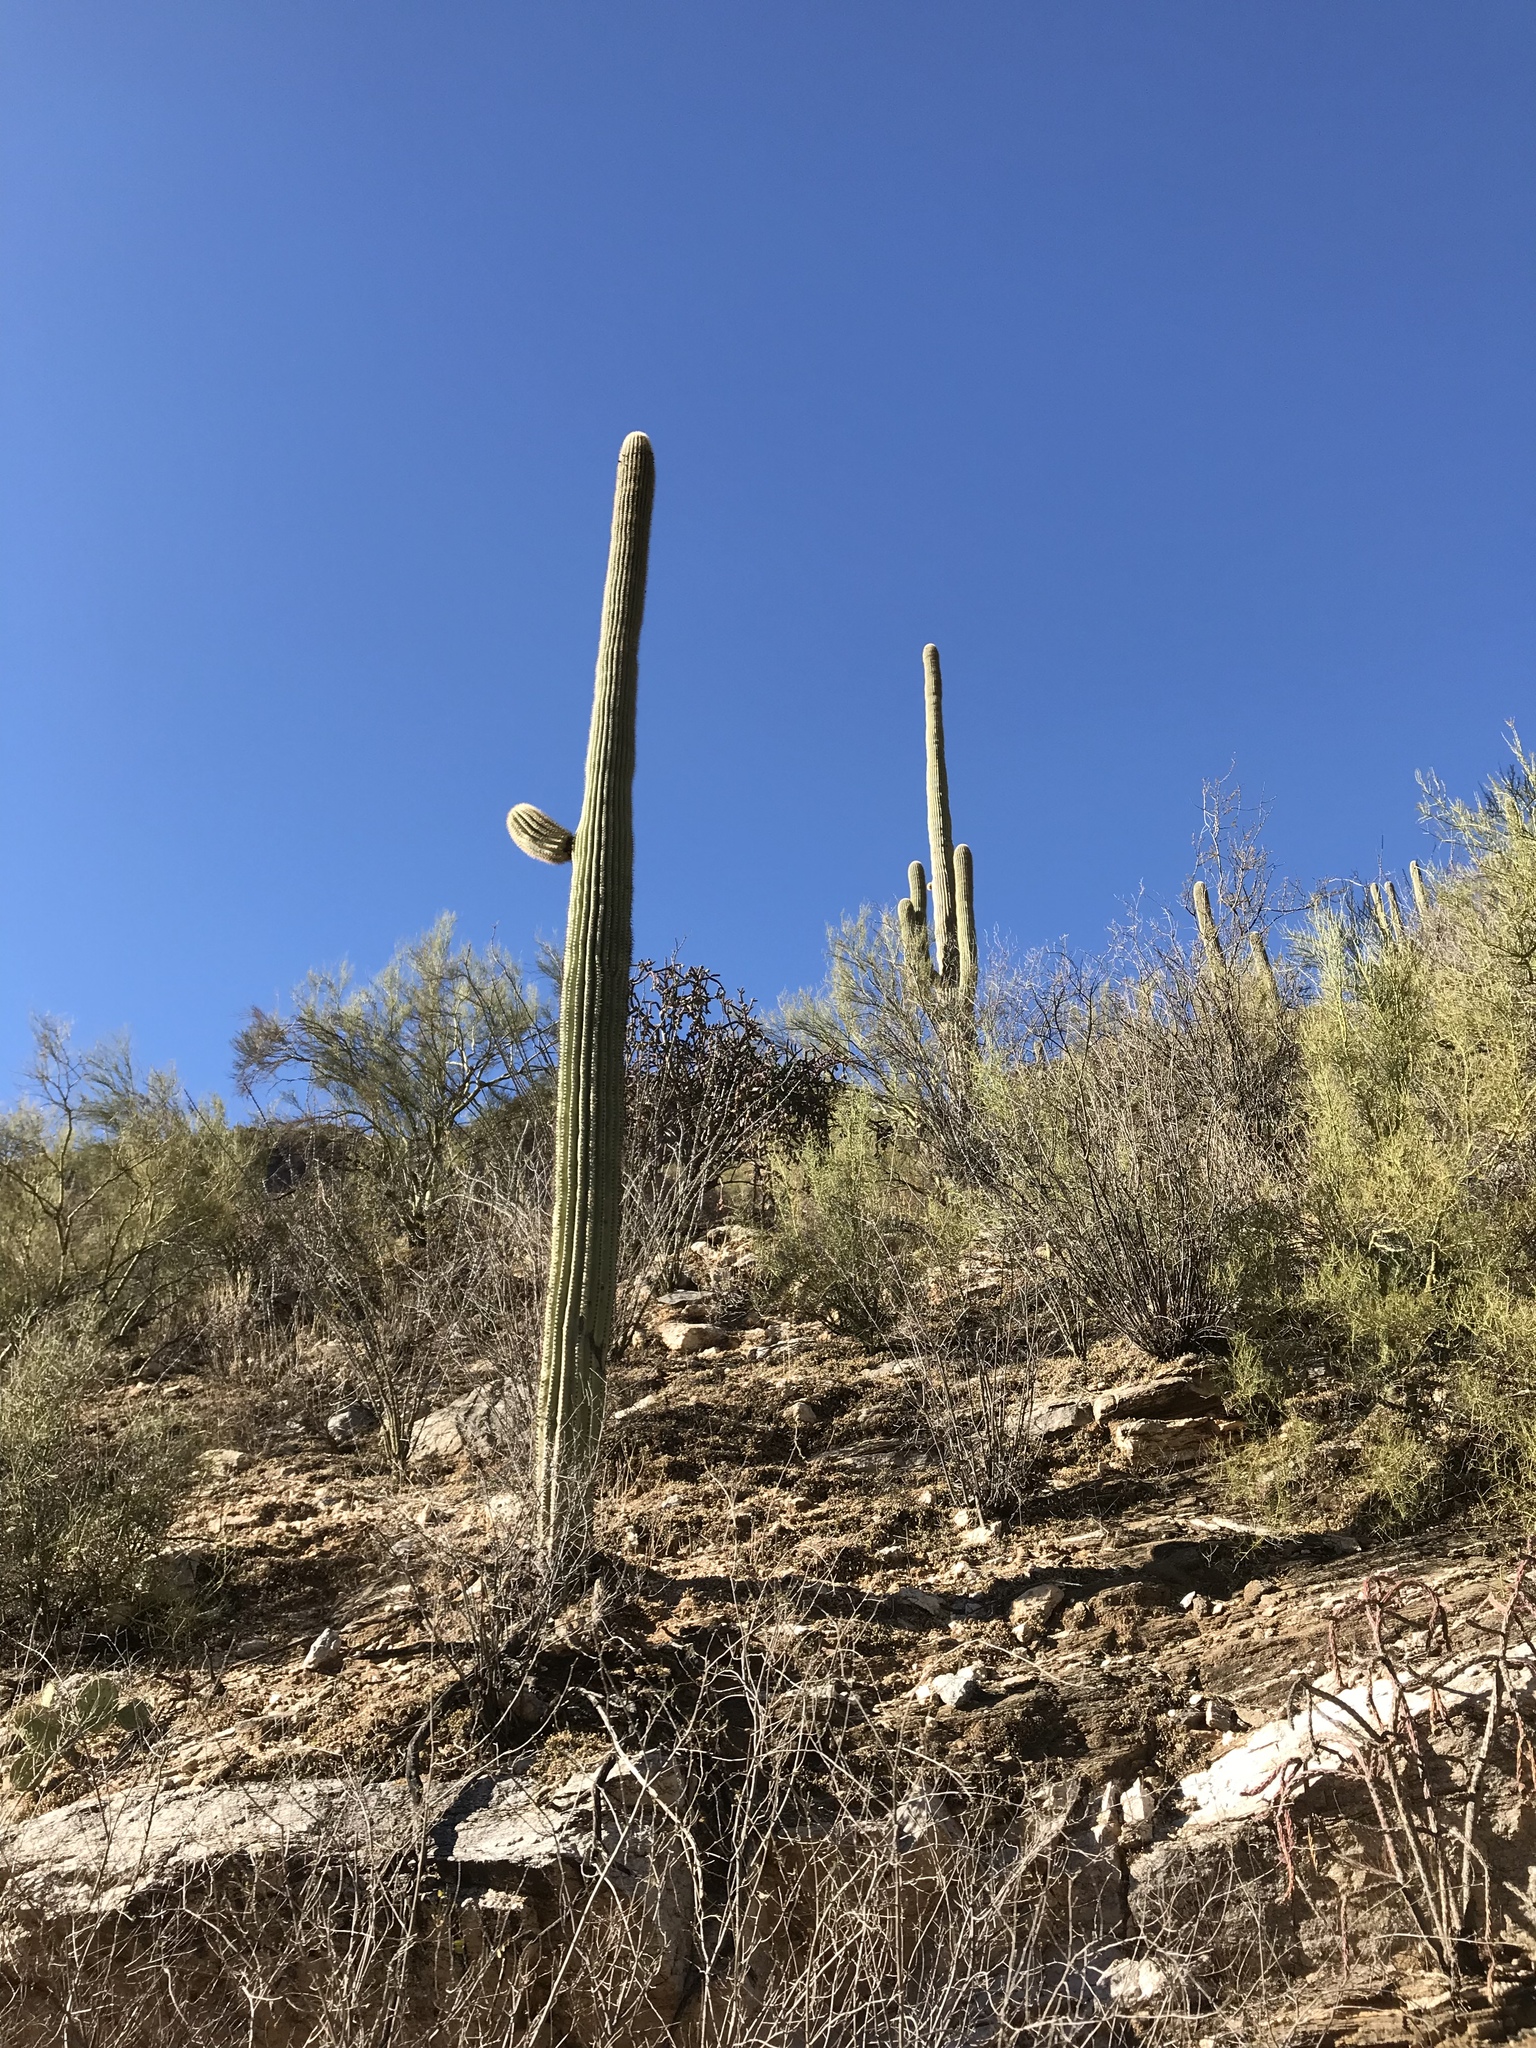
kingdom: Plantae
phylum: Tracheophyta
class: Magnoliopsida
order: Caryophyllales
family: Cactaceae
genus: Carnegiea
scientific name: Carnegiea gigantea
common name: Saguaro
